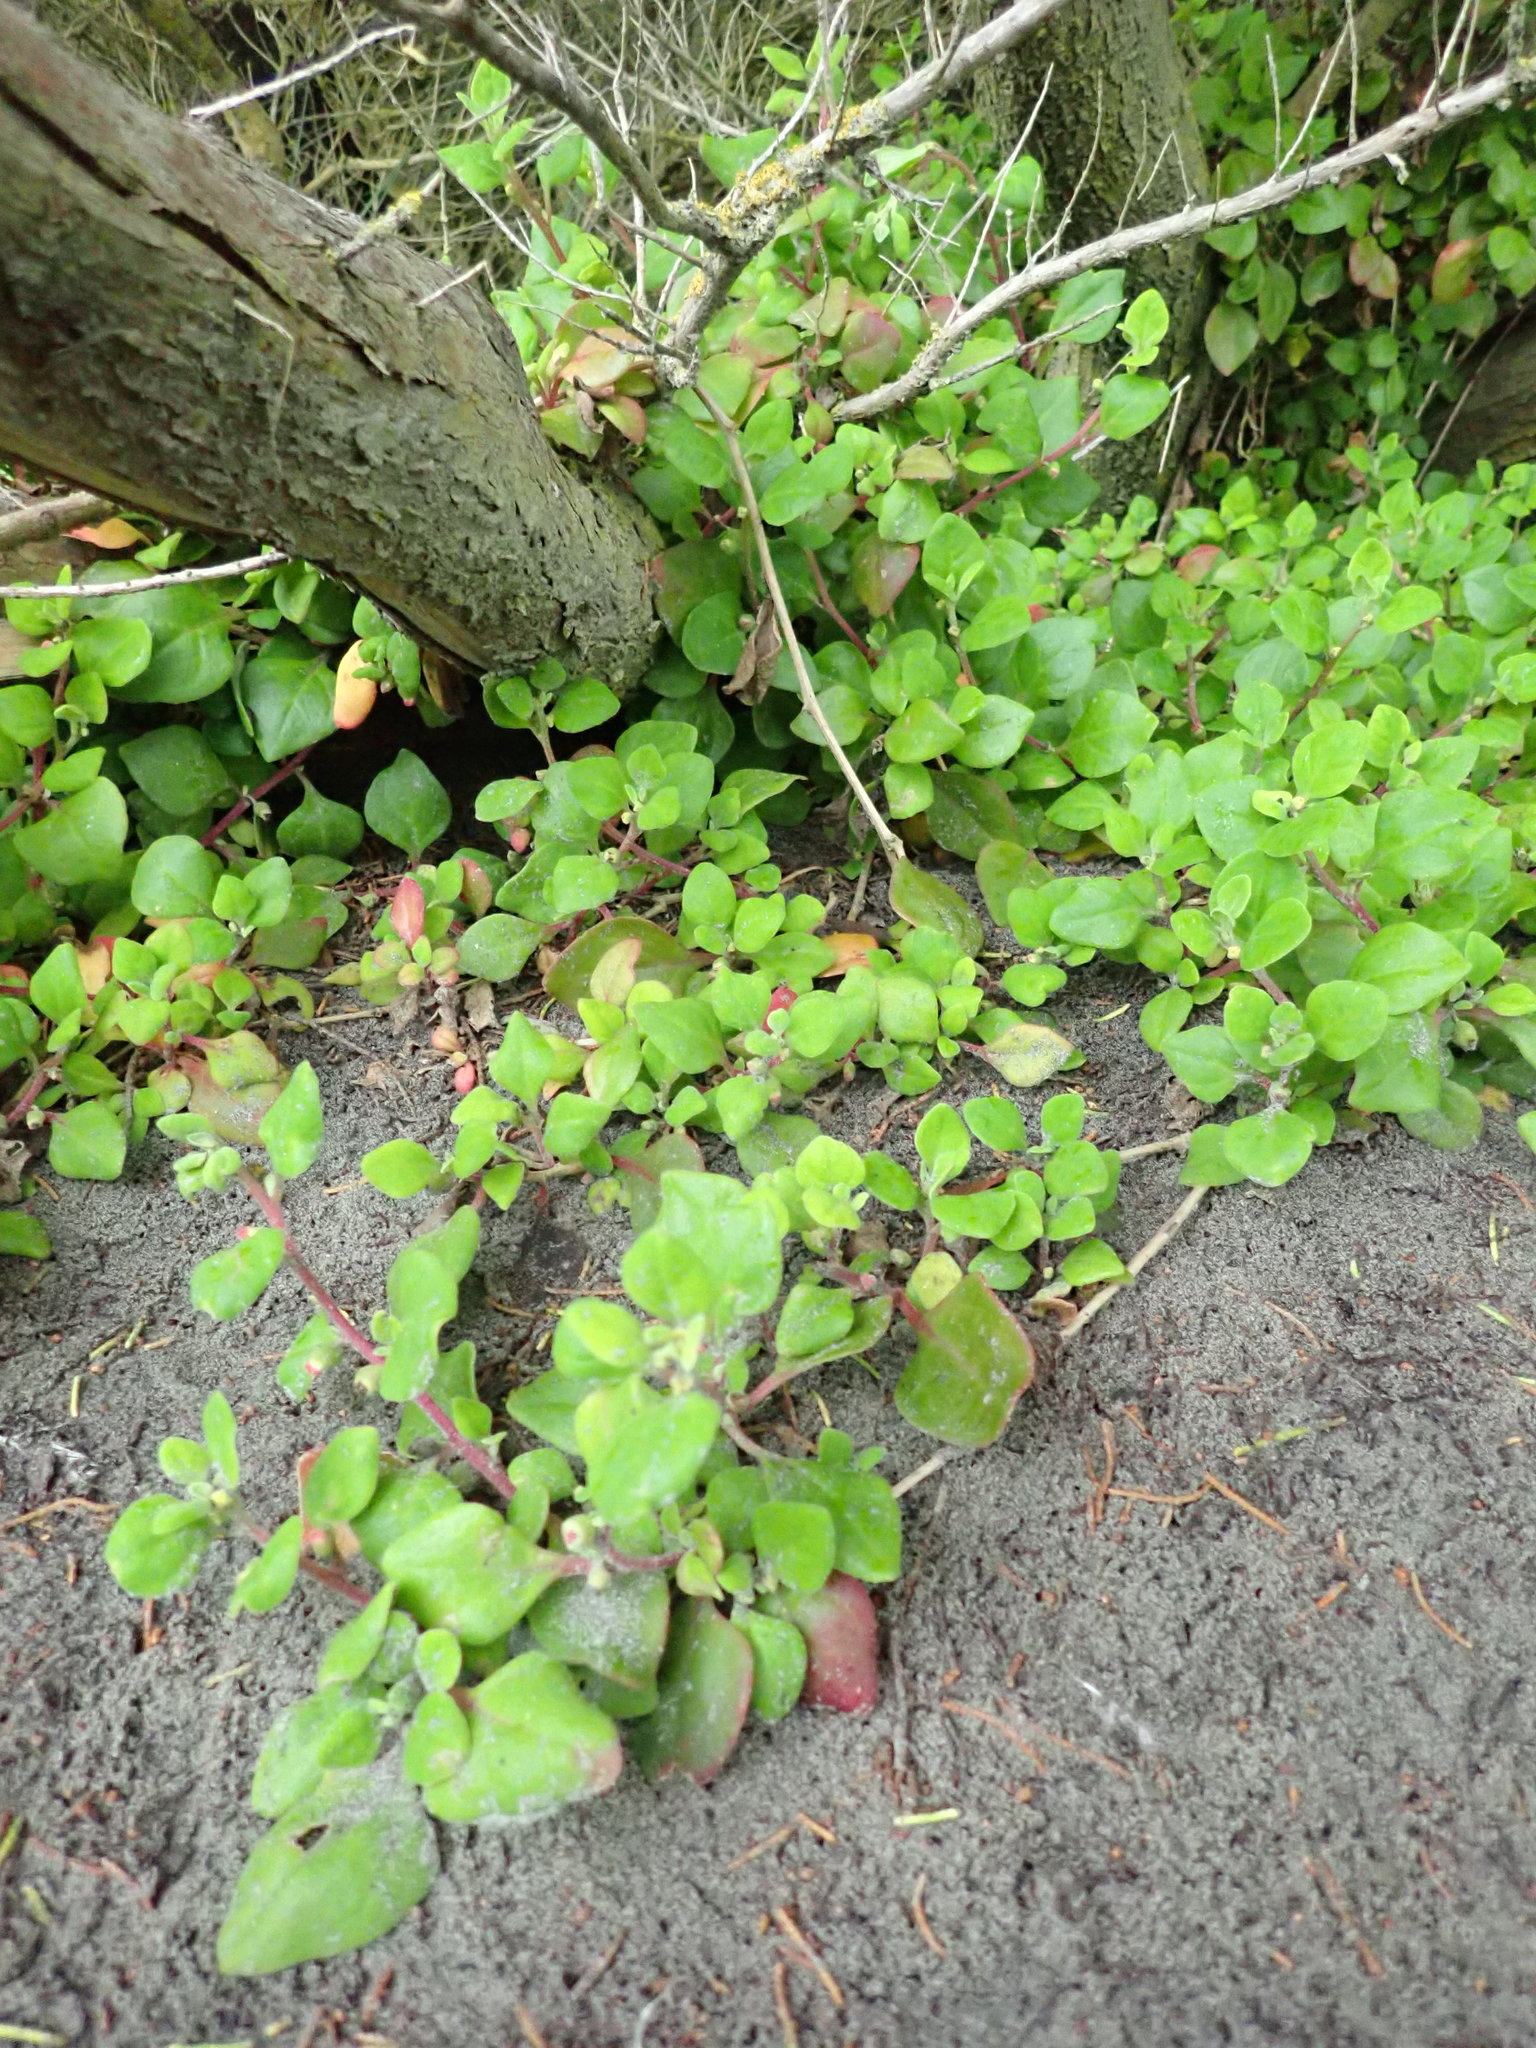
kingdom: Plantae
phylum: Tracheophyta
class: Magnoliopsida
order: Caryophyllales
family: Aizoaceae
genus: Tetragonia
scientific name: Tetragonia implexicoma
